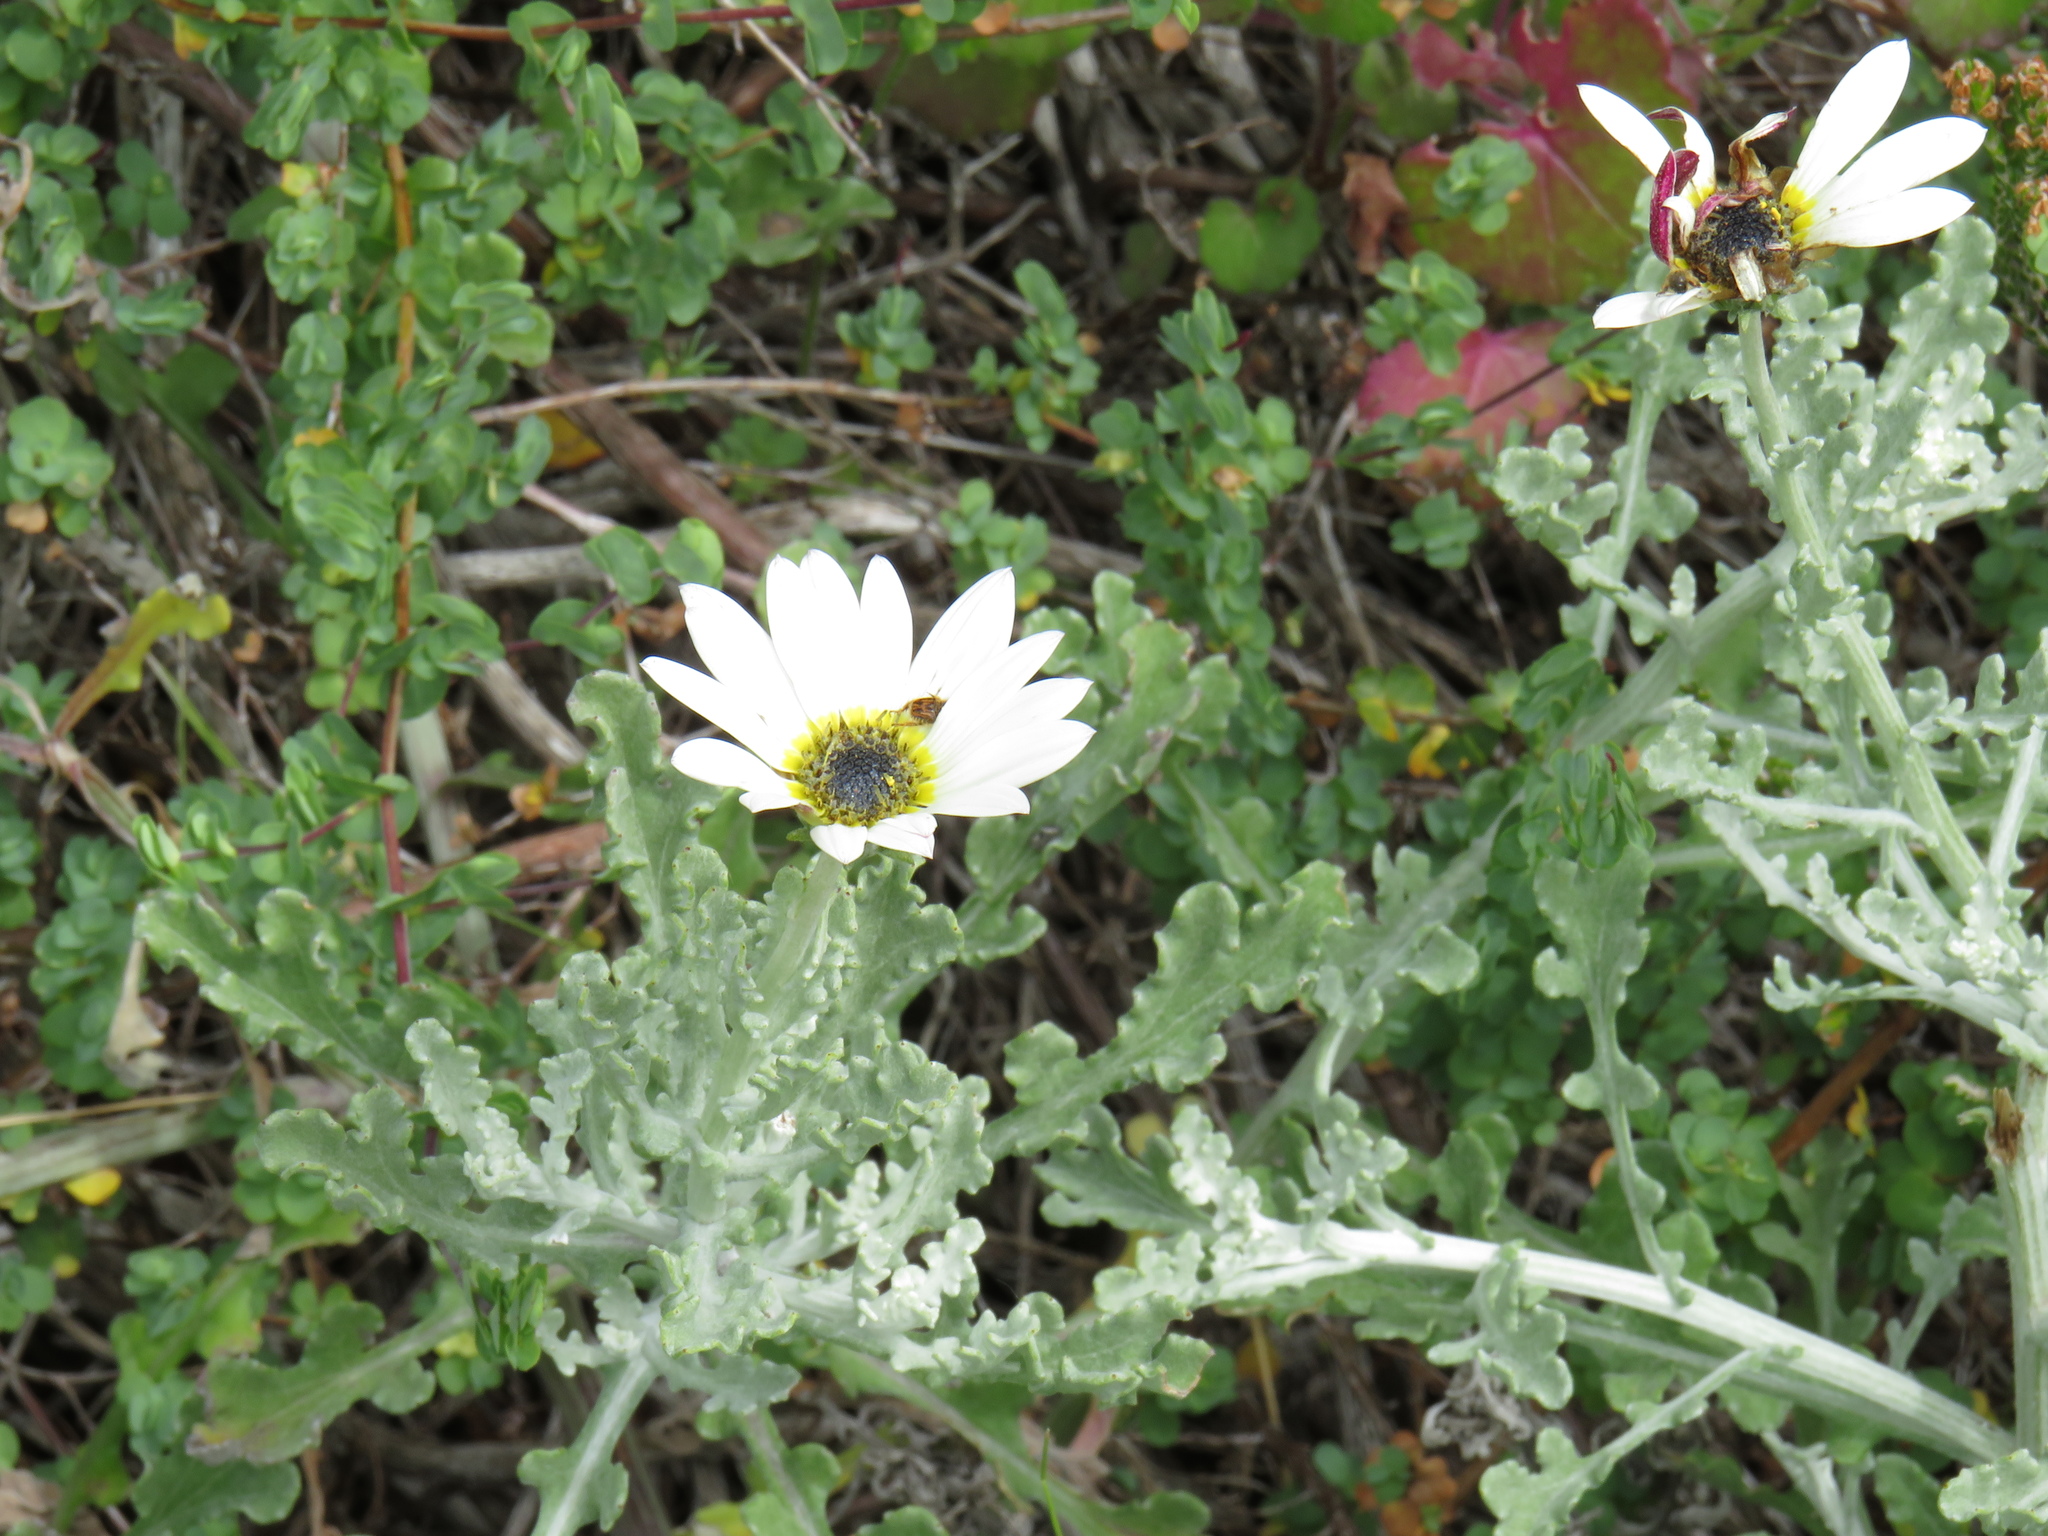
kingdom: Plantae
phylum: Tracheophyta
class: Magnoliopsida
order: Asterales
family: Asteraceae
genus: Arctotis
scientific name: Arctotis stoechadifolia
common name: African daisy
